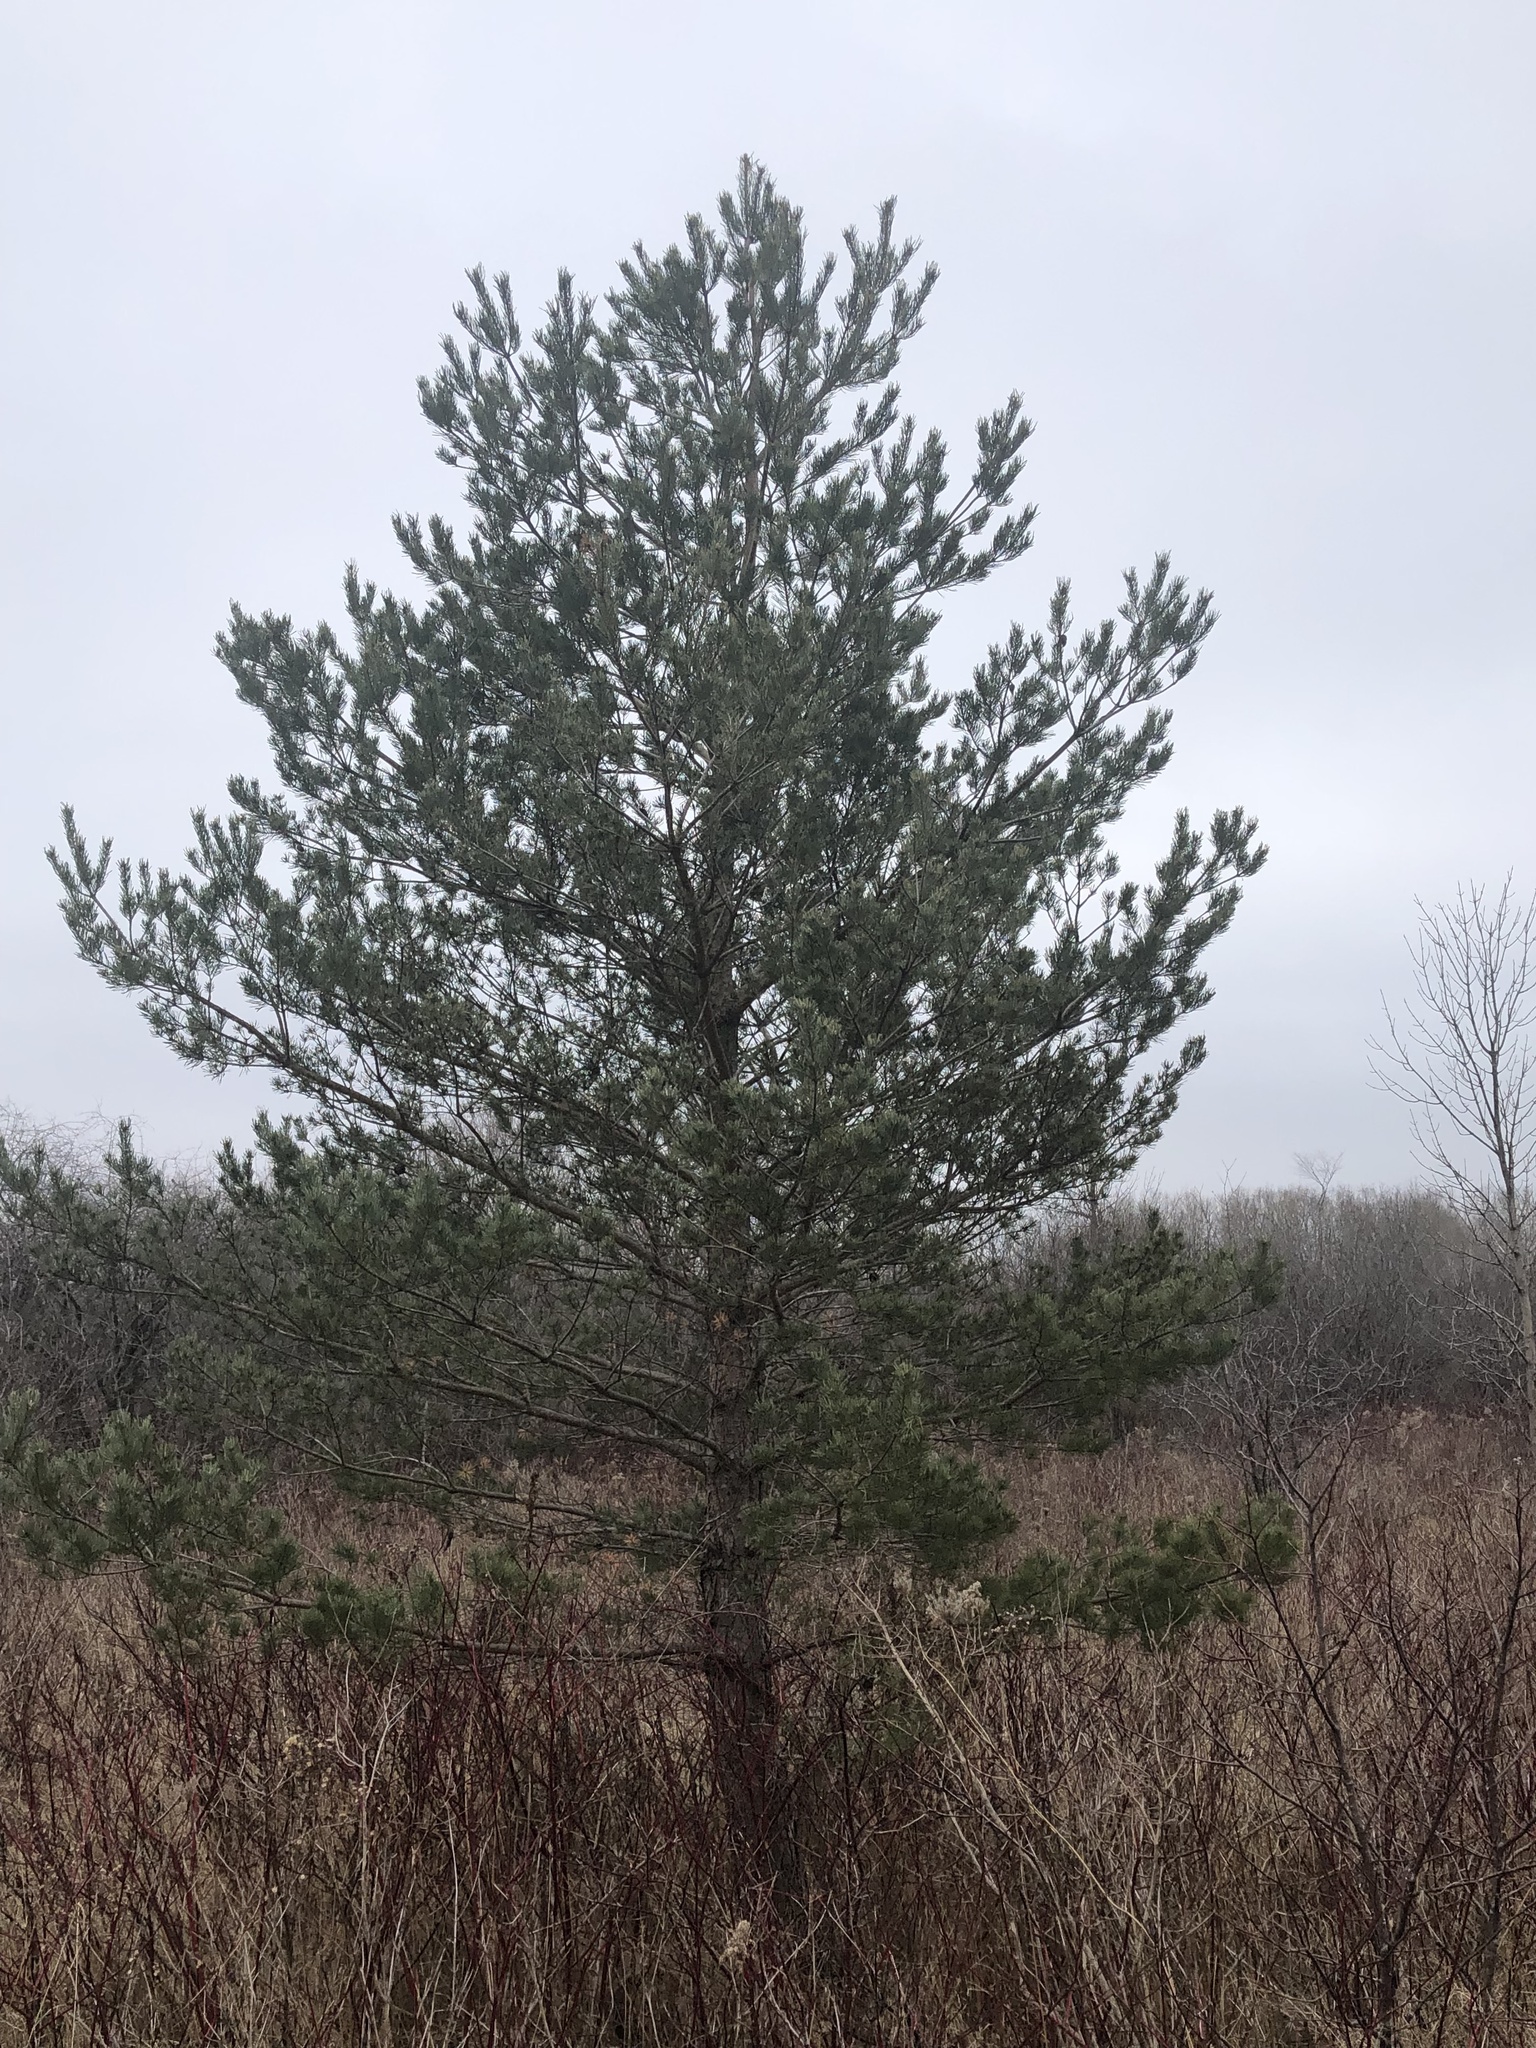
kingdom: Plantae
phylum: Tracheophyta
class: Pinopsida
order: Pinales
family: Pinaceae
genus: Pinus
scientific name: Pinus sylvestris
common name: Scots pine
